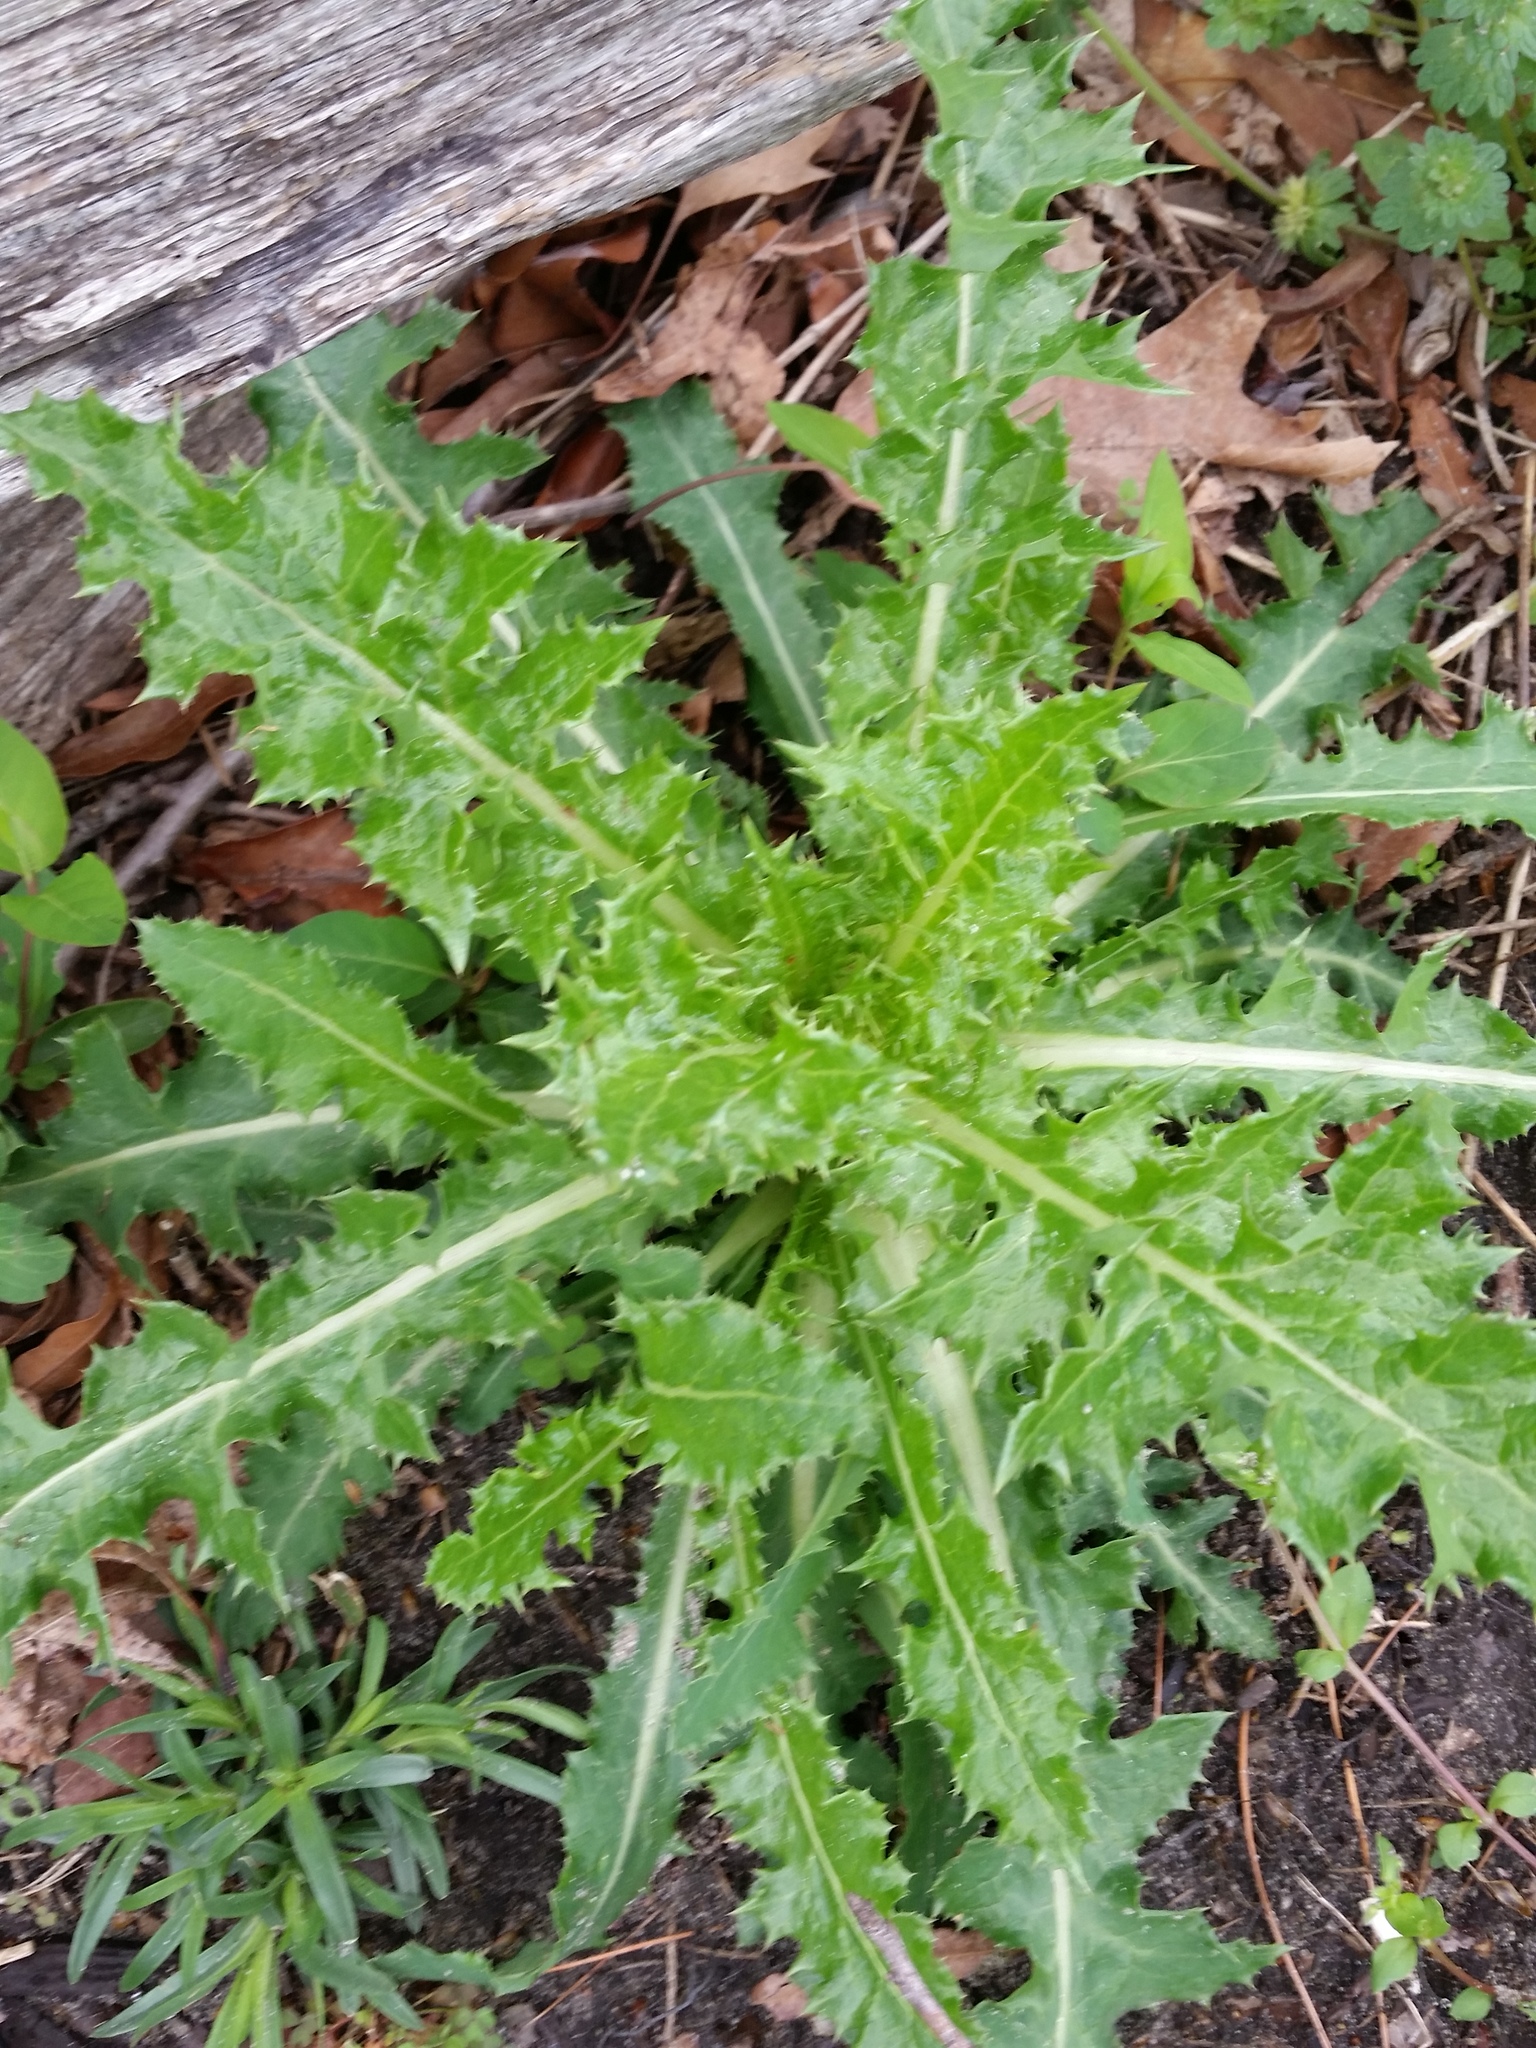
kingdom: Plantae
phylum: Tracheophyta
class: Magnoliopsida
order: Asterales
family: Asteraceae
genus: Cirsium
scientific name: Cirsium vulgare
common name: Bull thistle
